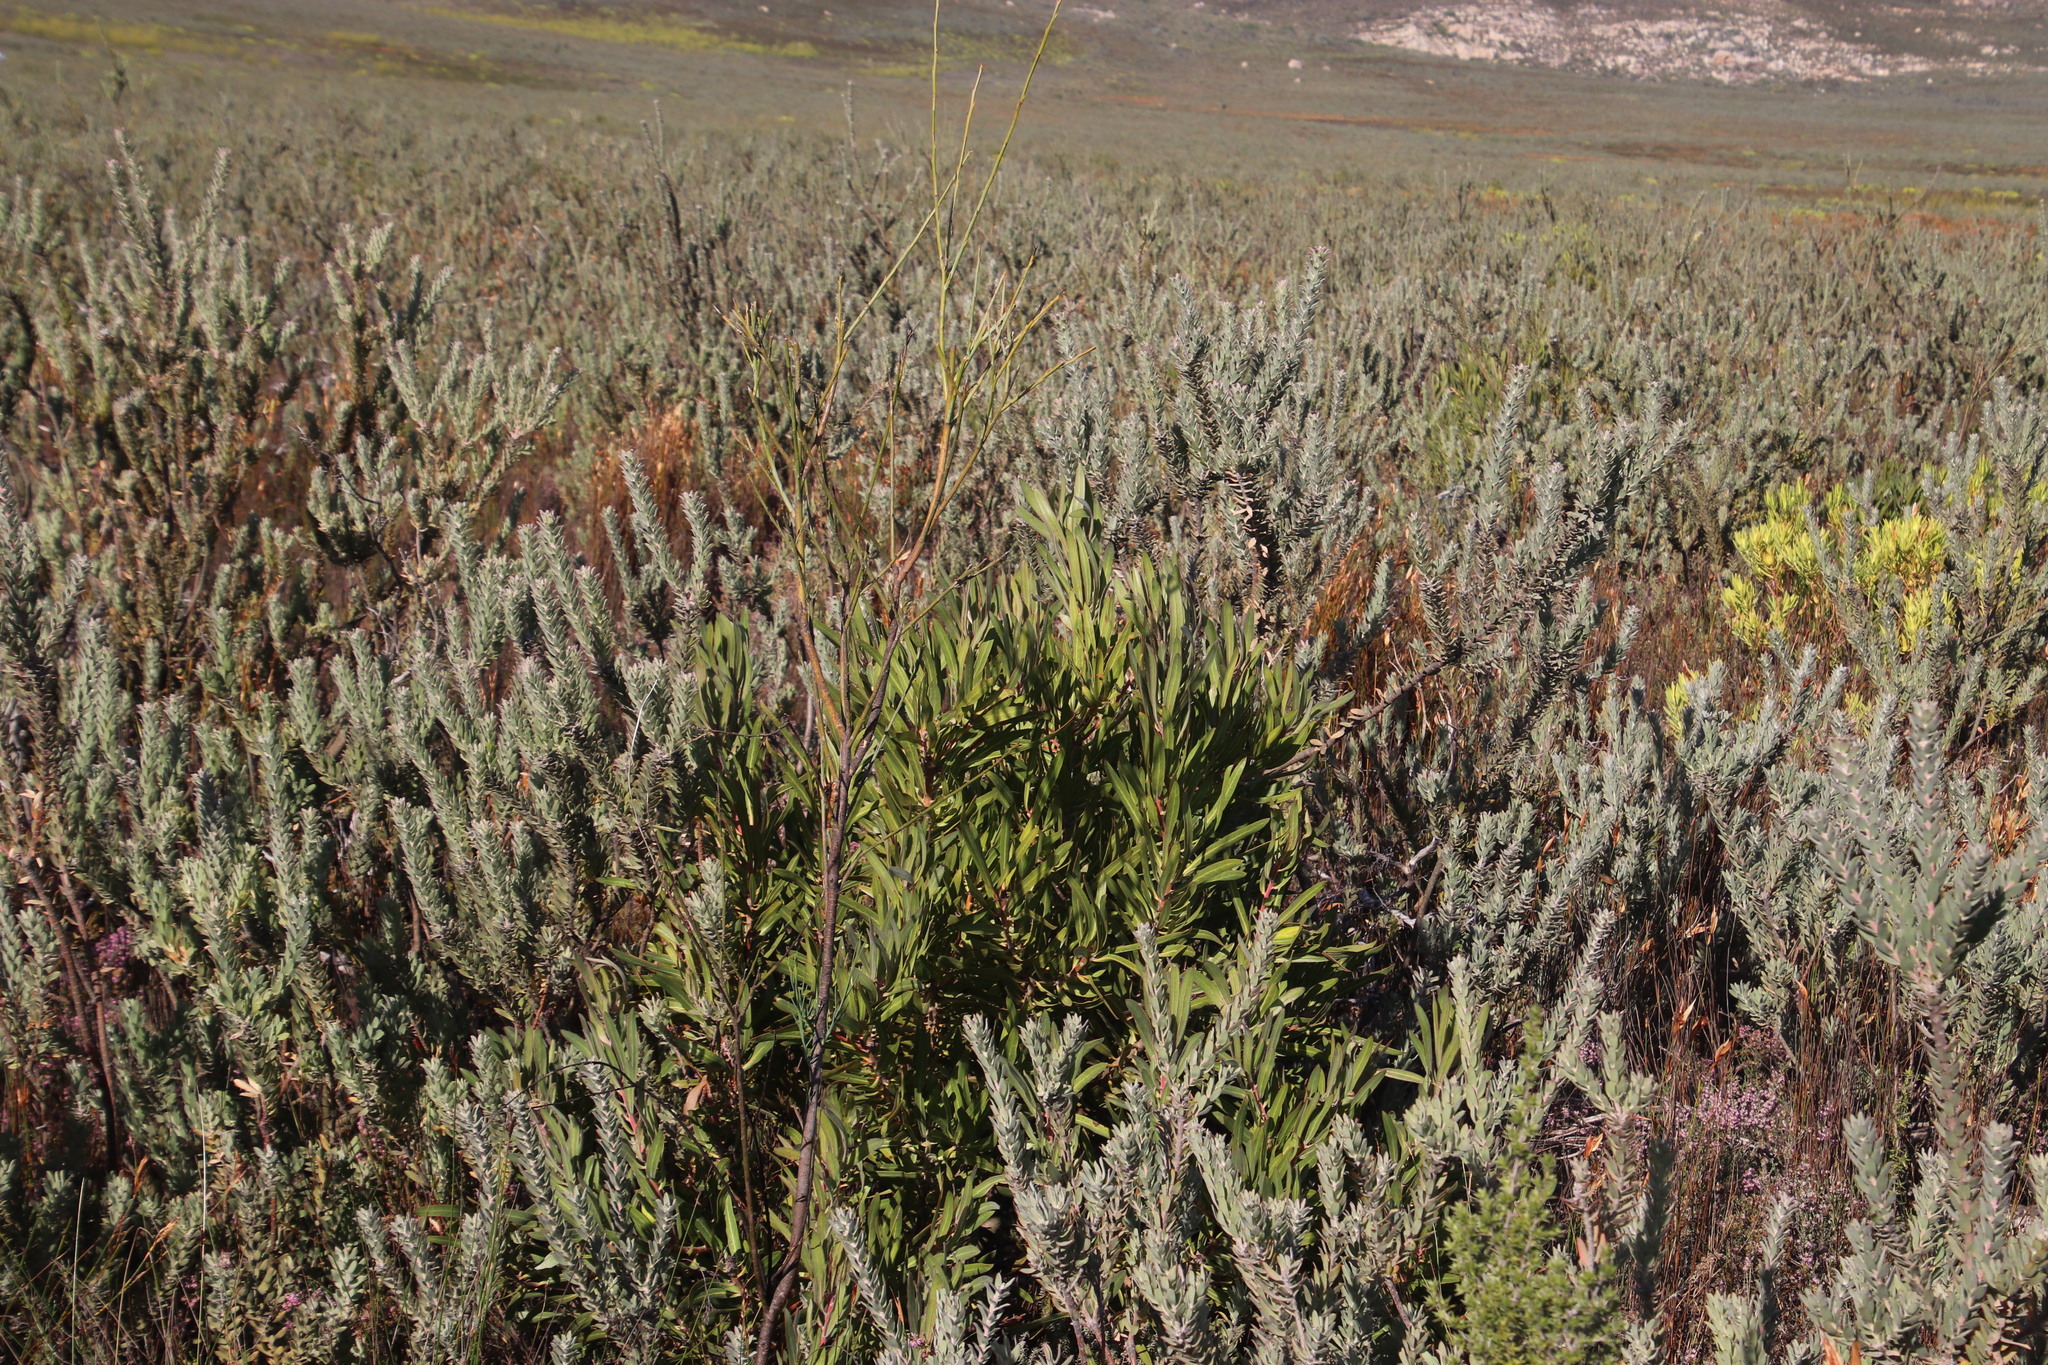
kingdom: Plantae
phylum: Tracheophyta
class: Magnoliopsida
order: Proteales
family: Proteaceae
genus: Protea
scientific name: Protea burchellii
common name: Burchell's sugarbush
